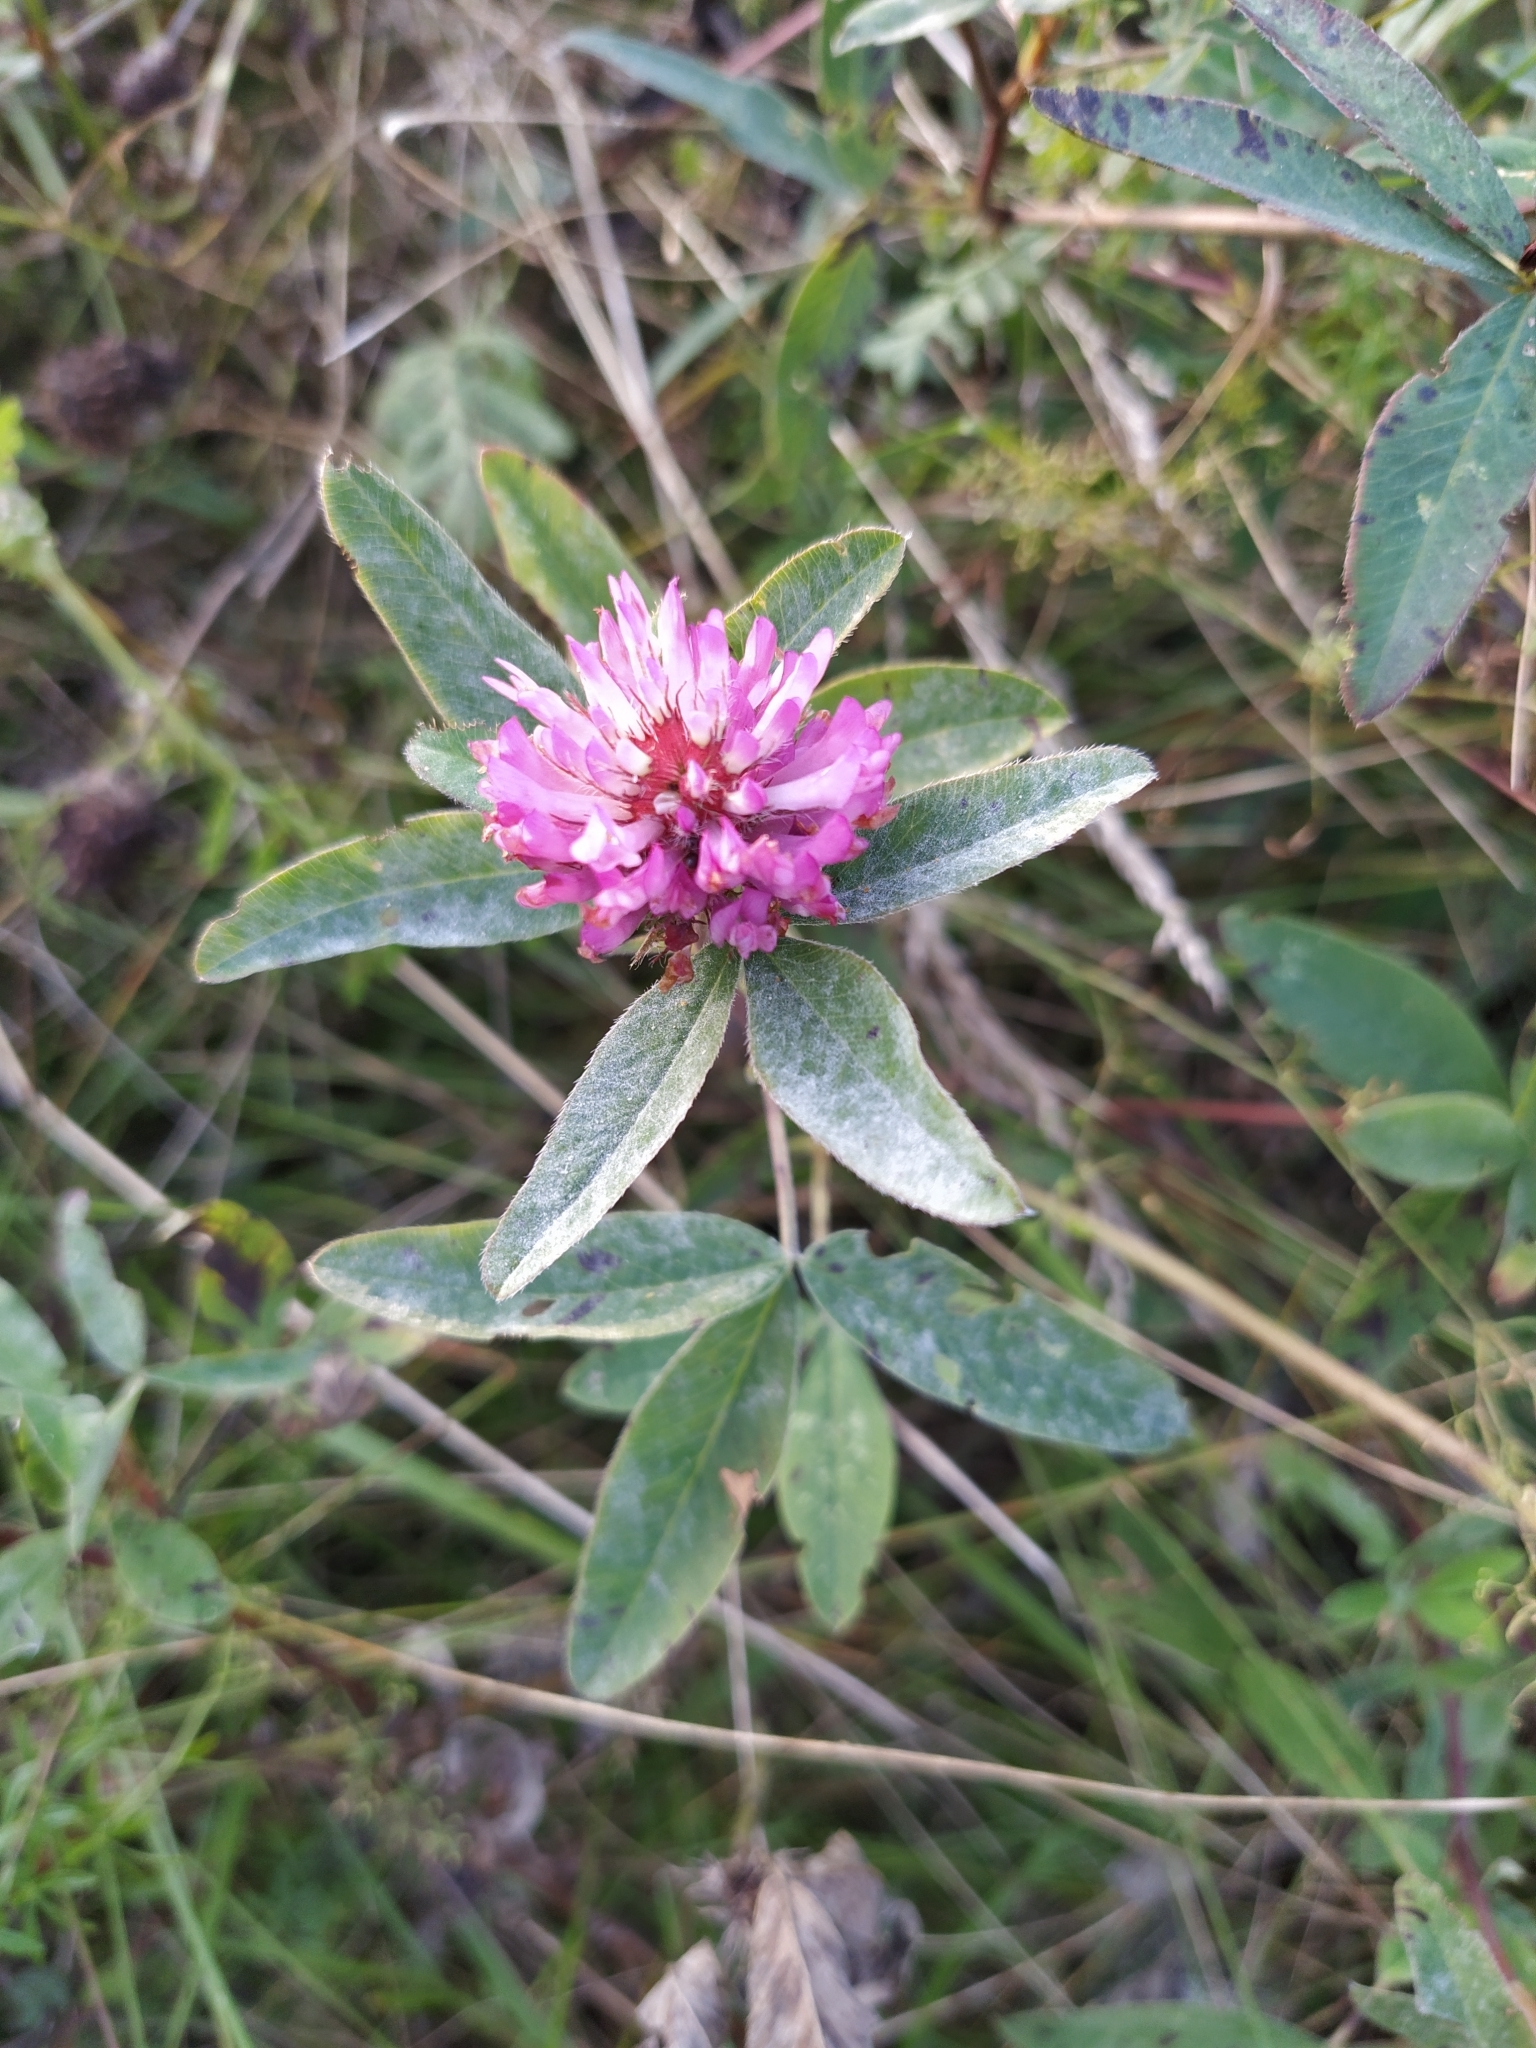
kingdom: Plantae
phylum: Tracheophyta
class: Magnoliopsida
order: Fabales
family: Fabaceae
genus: Trifolium
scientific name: Trifolium medium
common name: Zigzag clover
